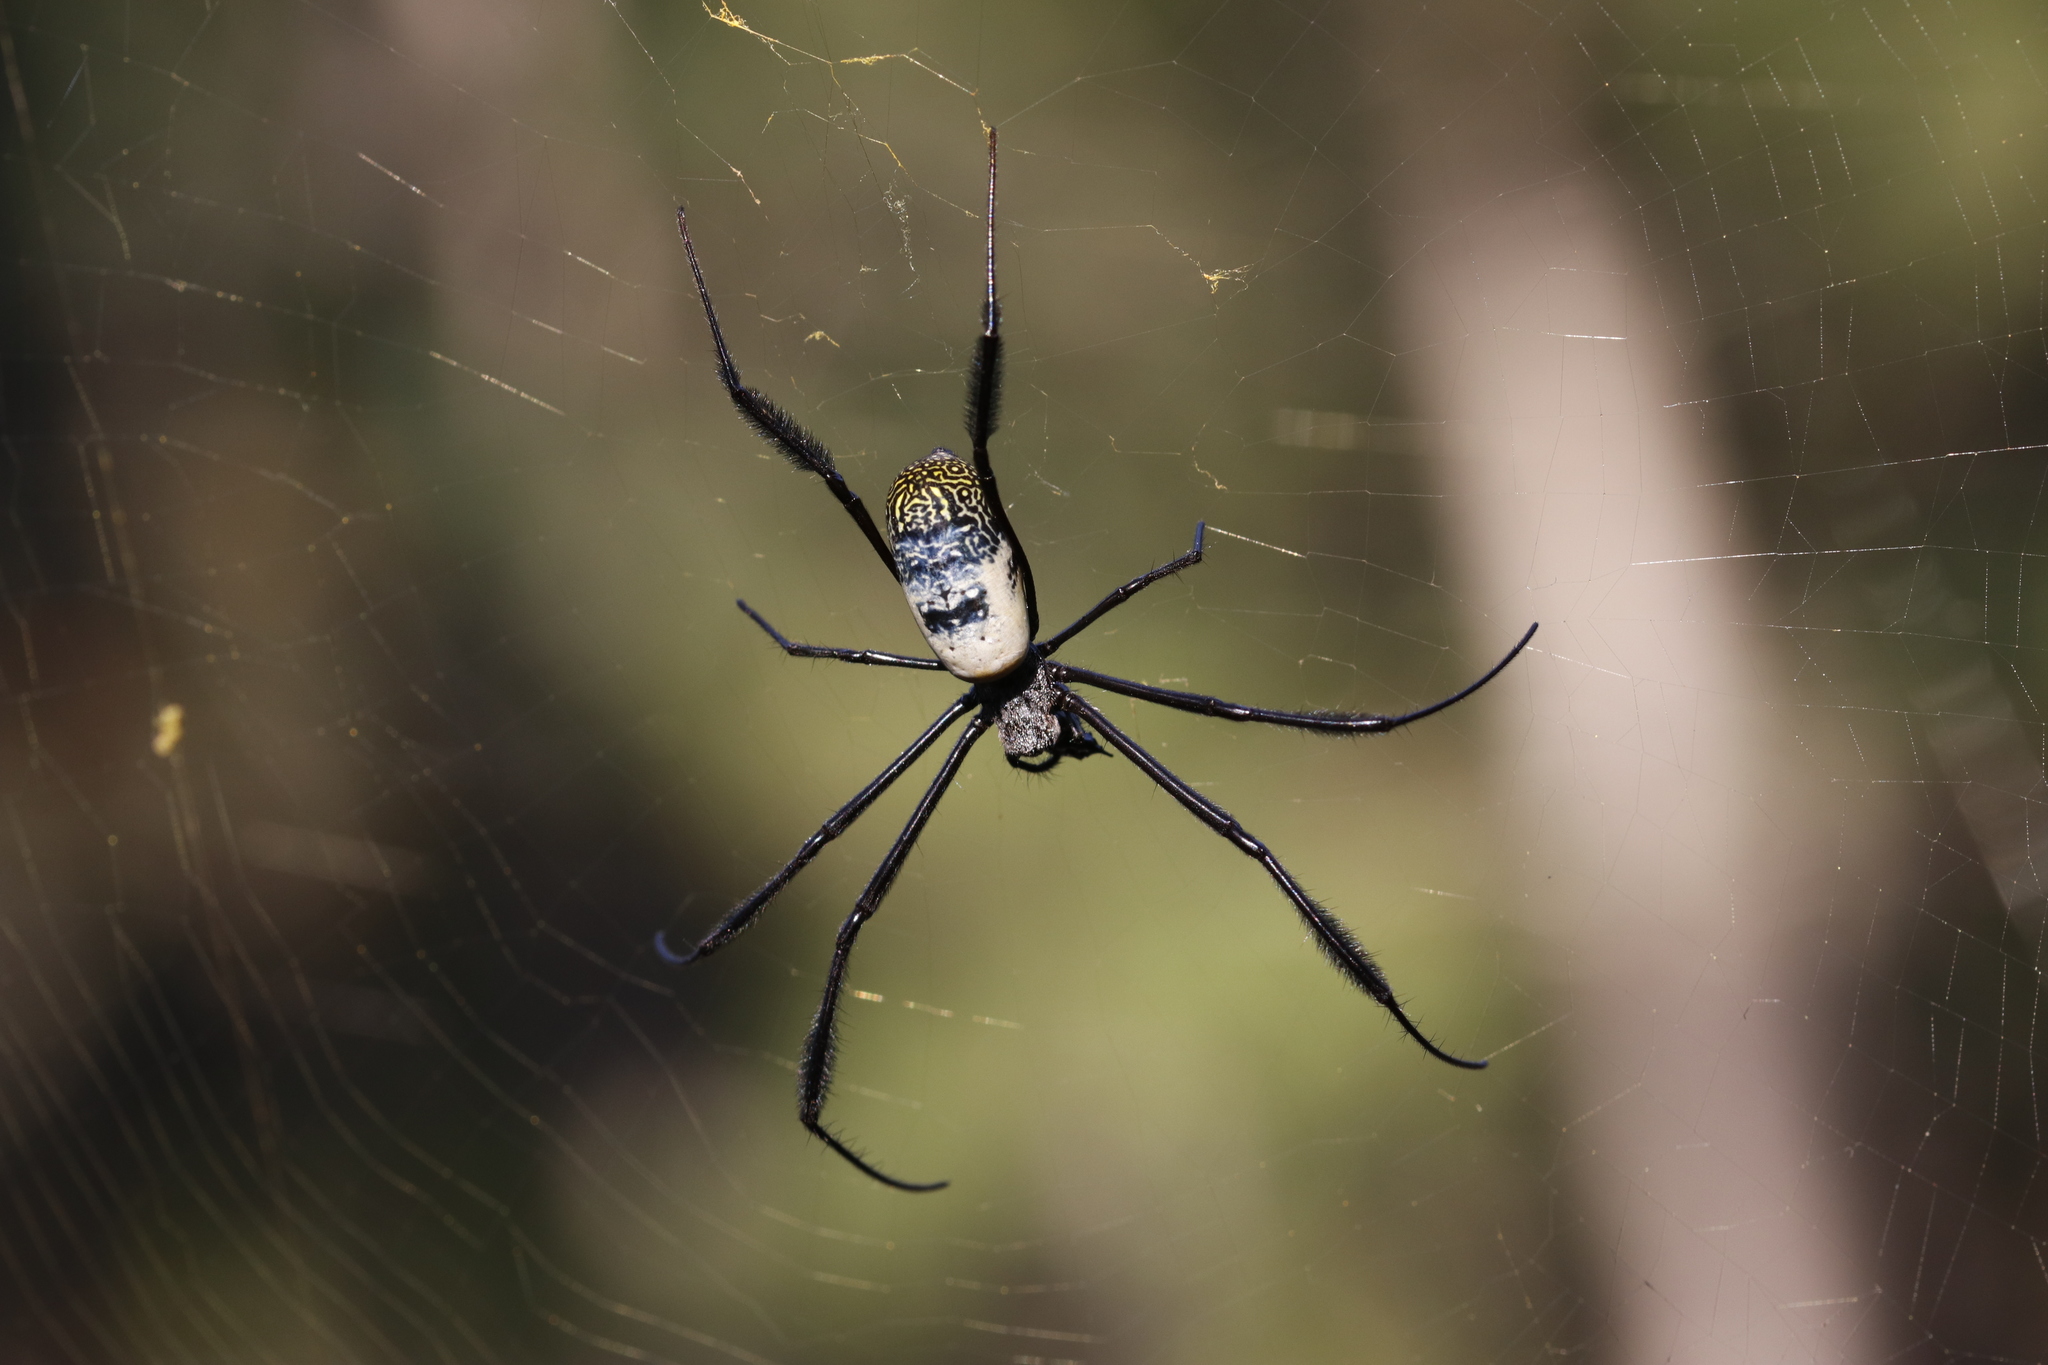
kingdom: Animalia
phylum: Arthropoda
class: Arachnida
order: Araneae
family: Araneidae
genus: Trichonephila
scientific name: Trichonephila fenestrata
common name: Hairy golden orb weaver
